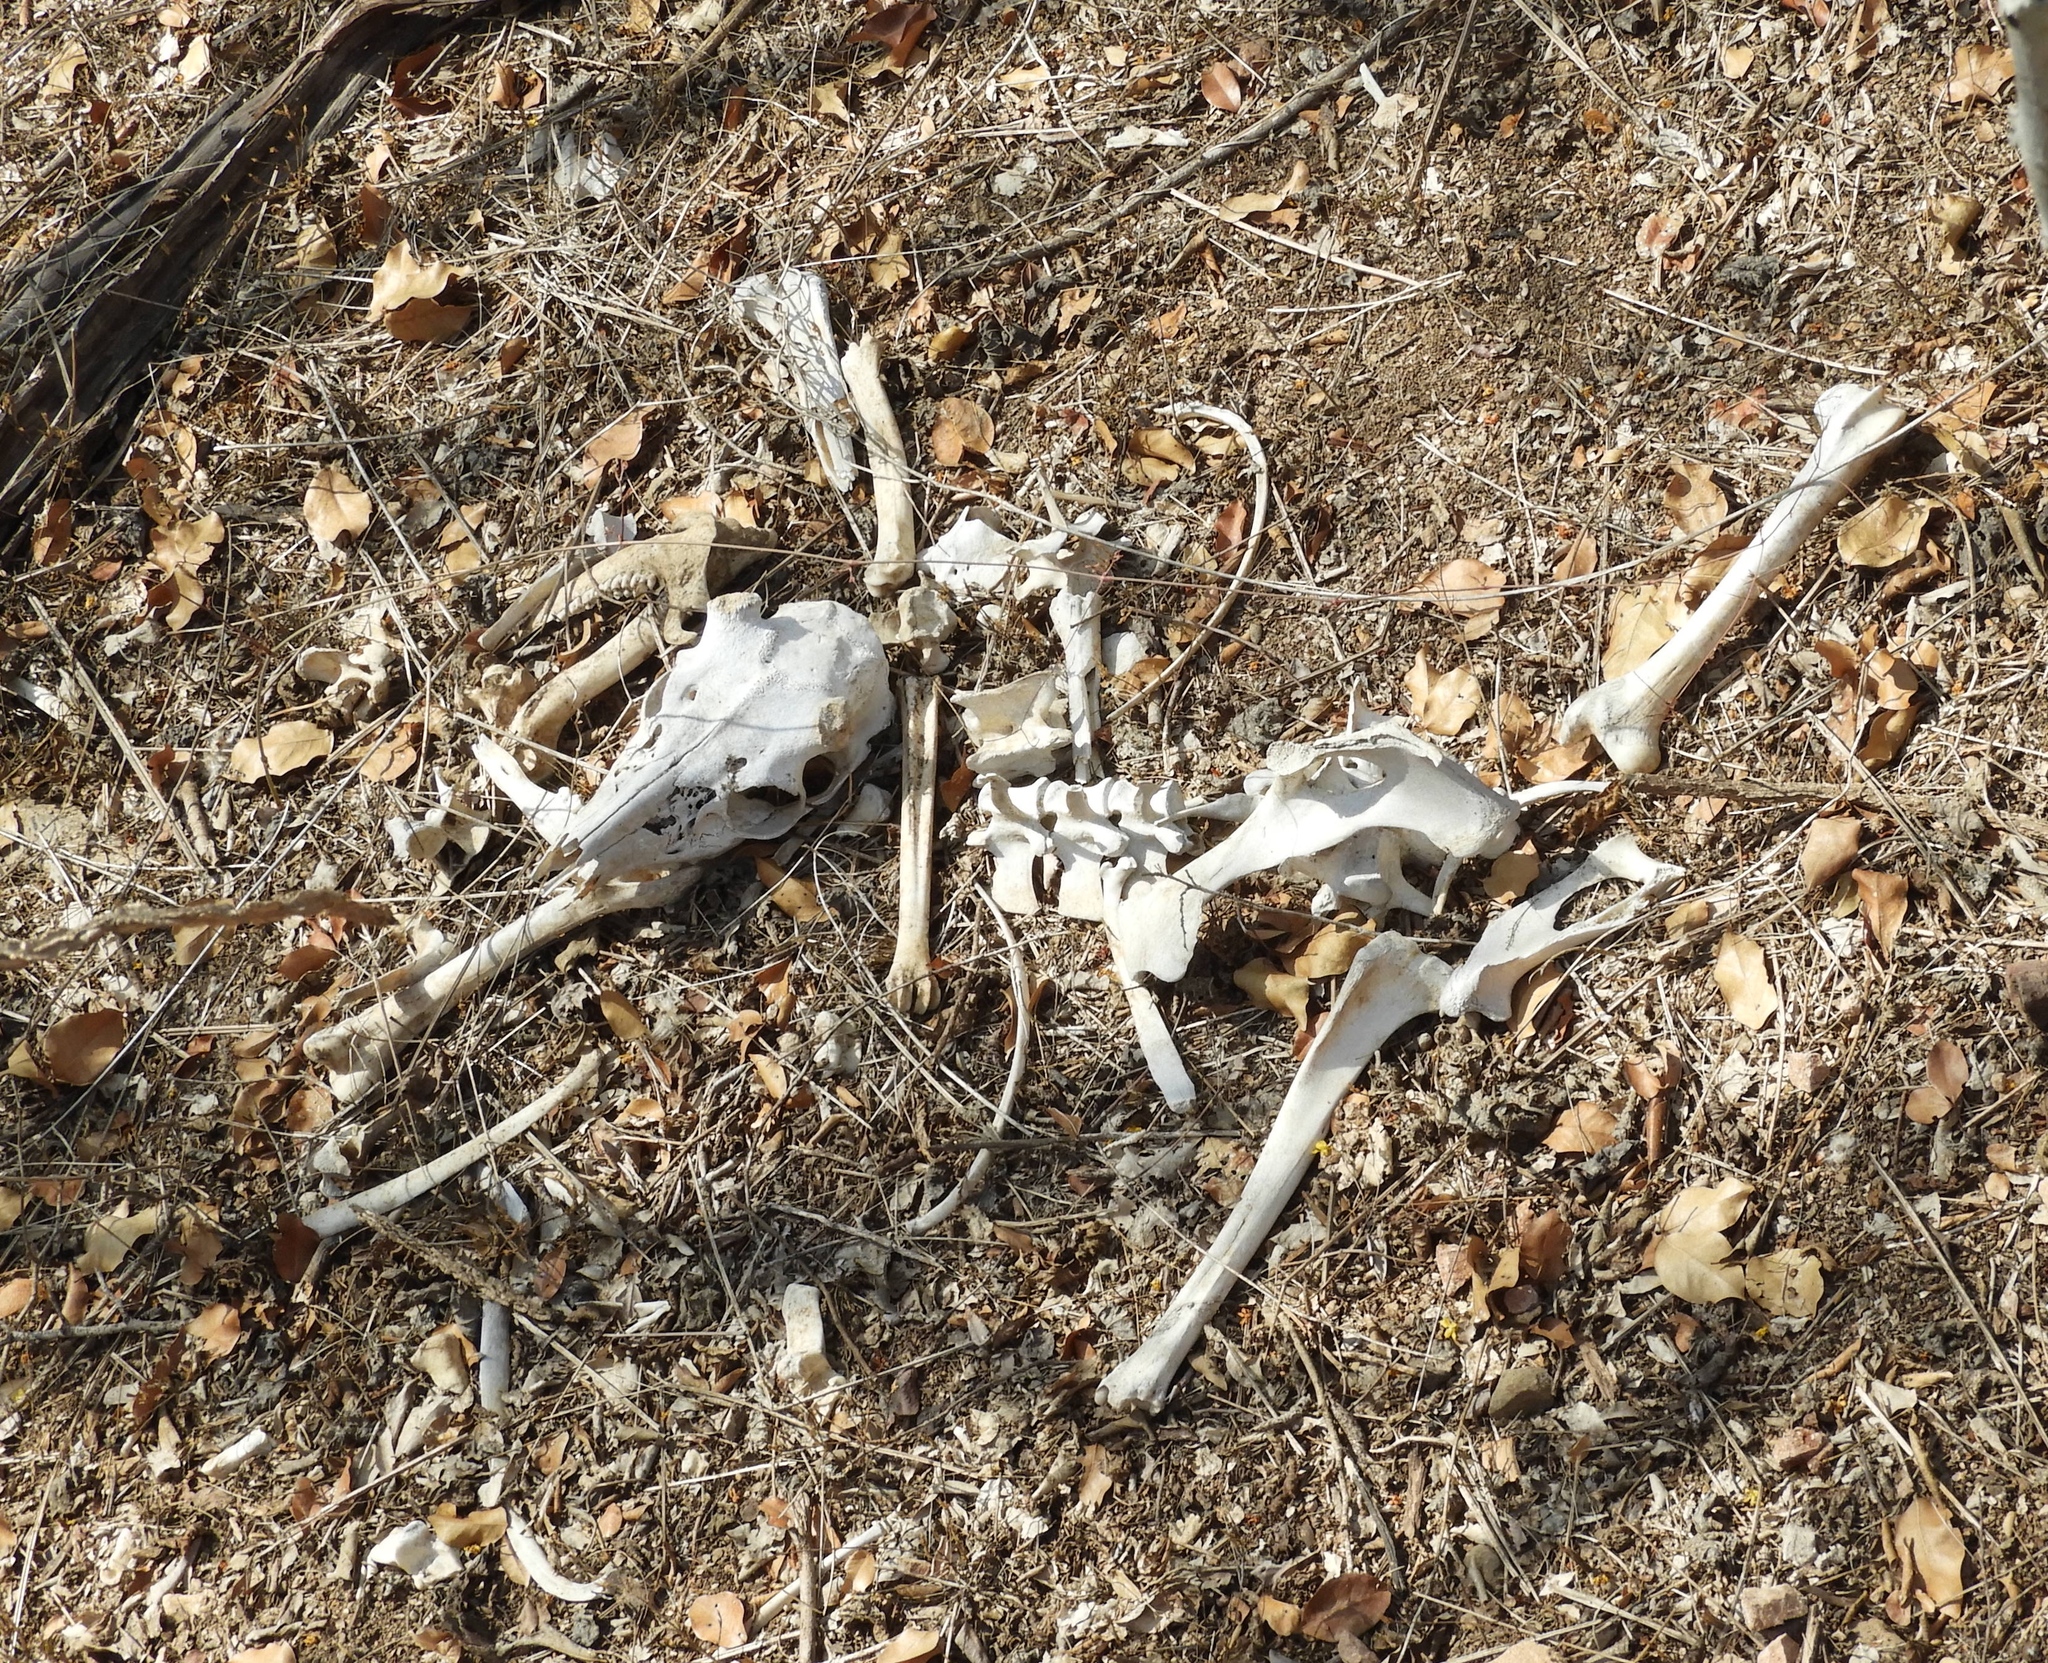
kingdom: Animalia
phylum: Chordata
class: Mammalia
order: Artiodactyla
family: Cervidae
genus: Odocoileus
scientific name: Odocoileus virginianus
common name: White-tailed deer
